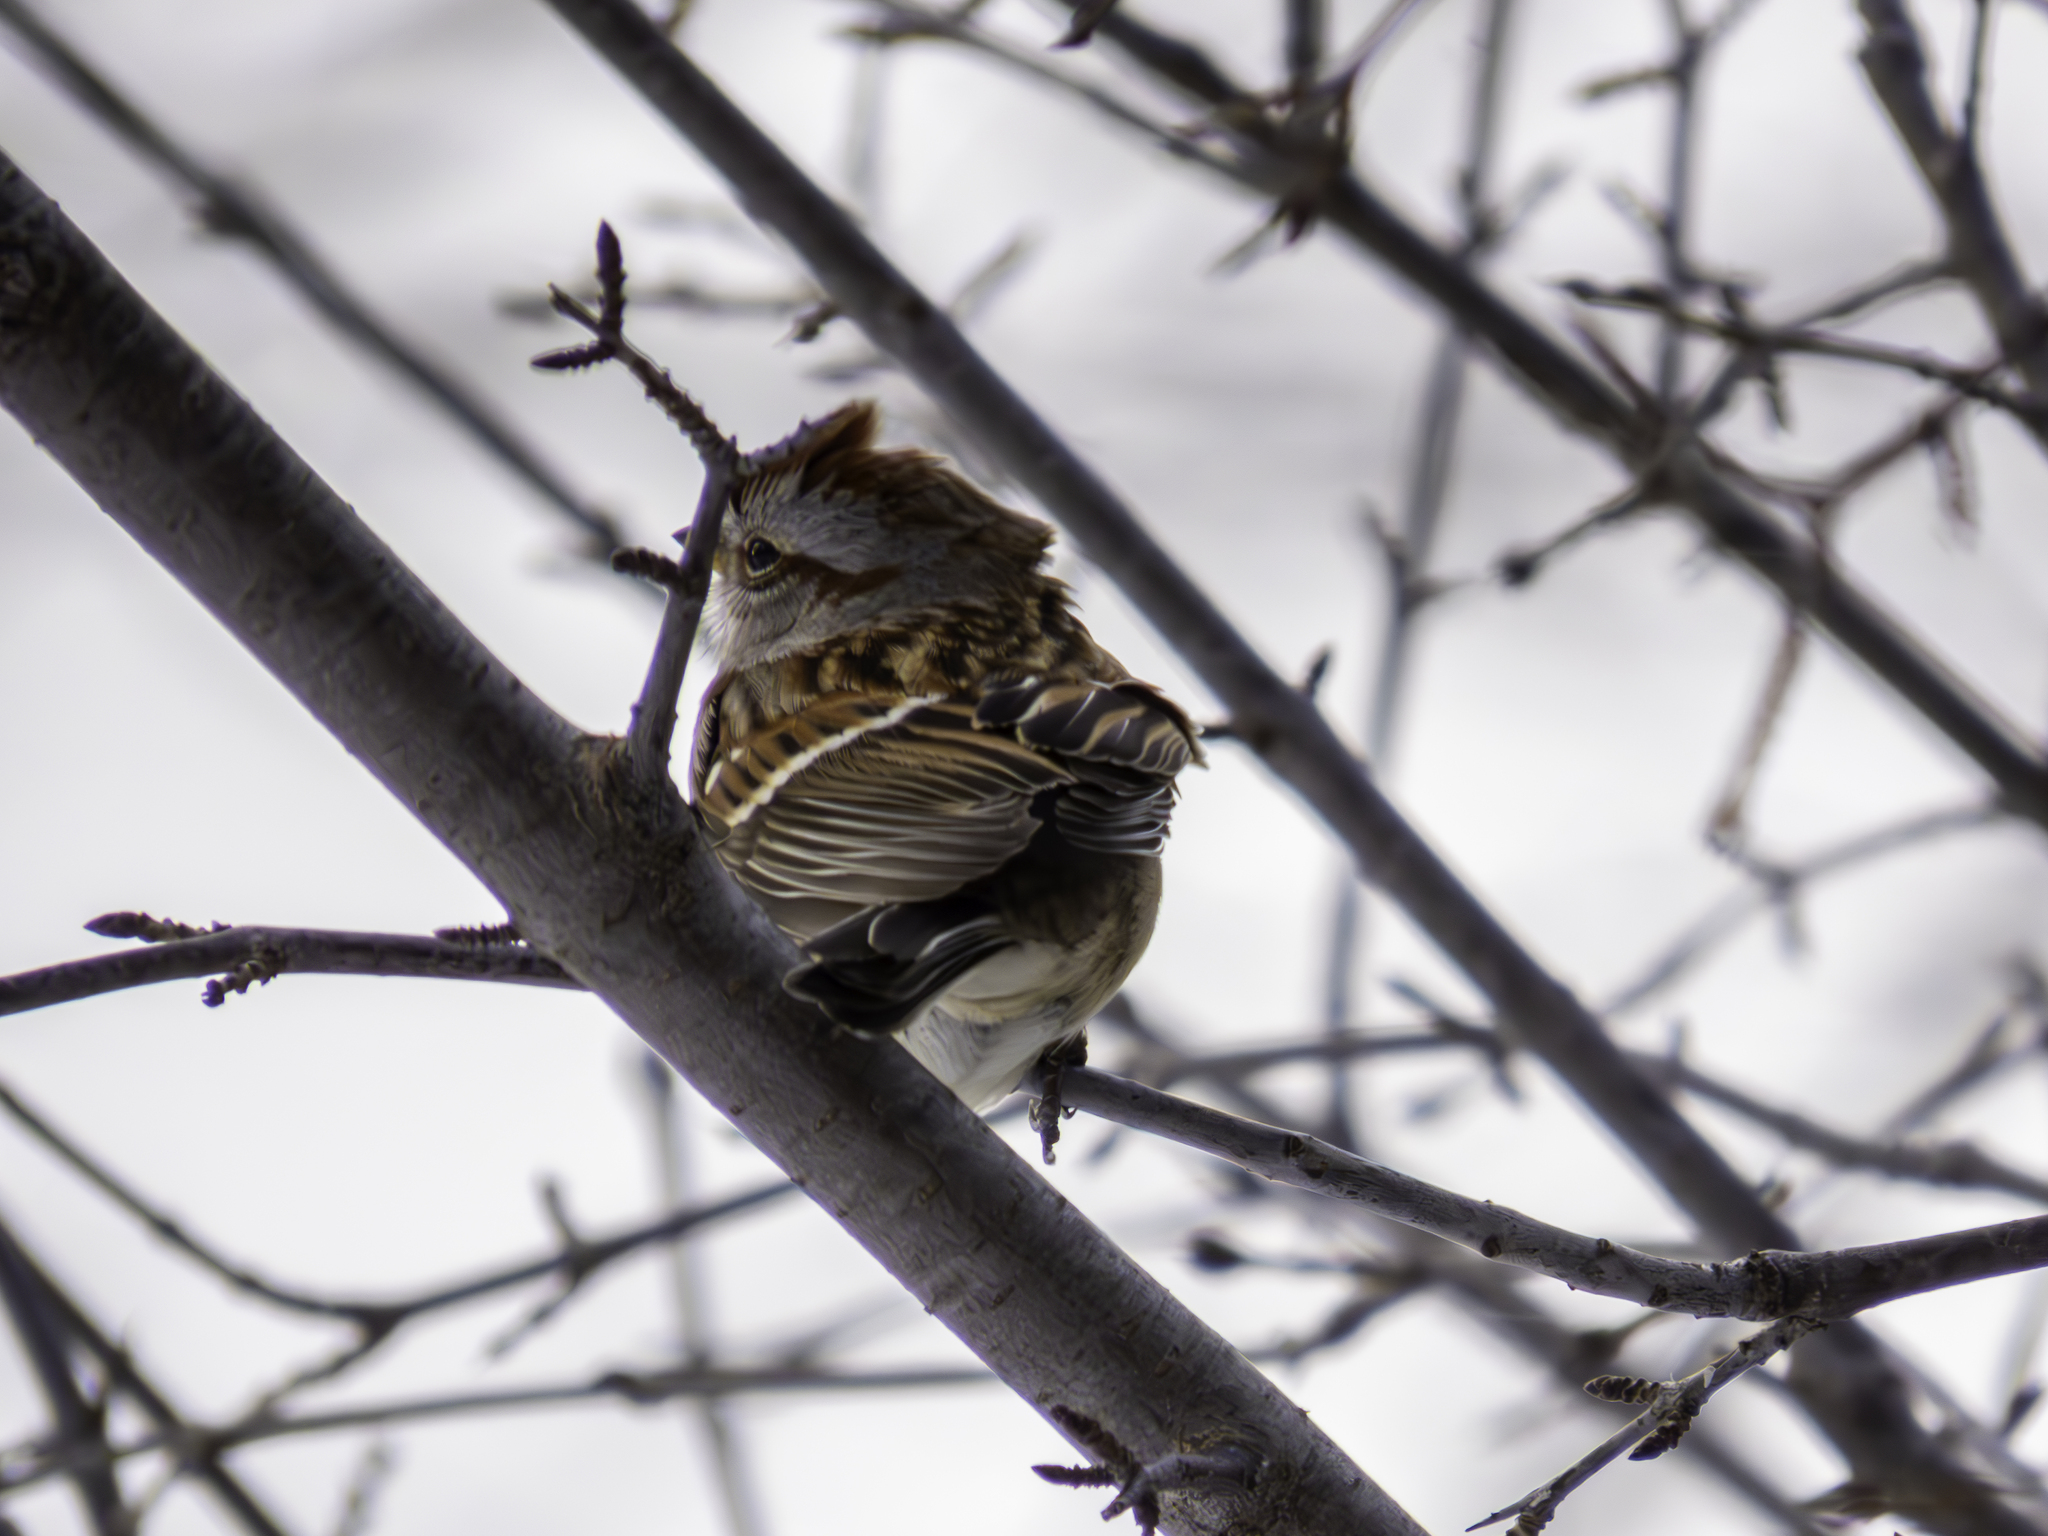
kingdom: Animalia
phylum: Chordata
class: Aves
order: Passeriformes
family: Passerellidae
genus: Spizelloides
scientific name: Spizelloides arborea
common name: American tree sparrow
